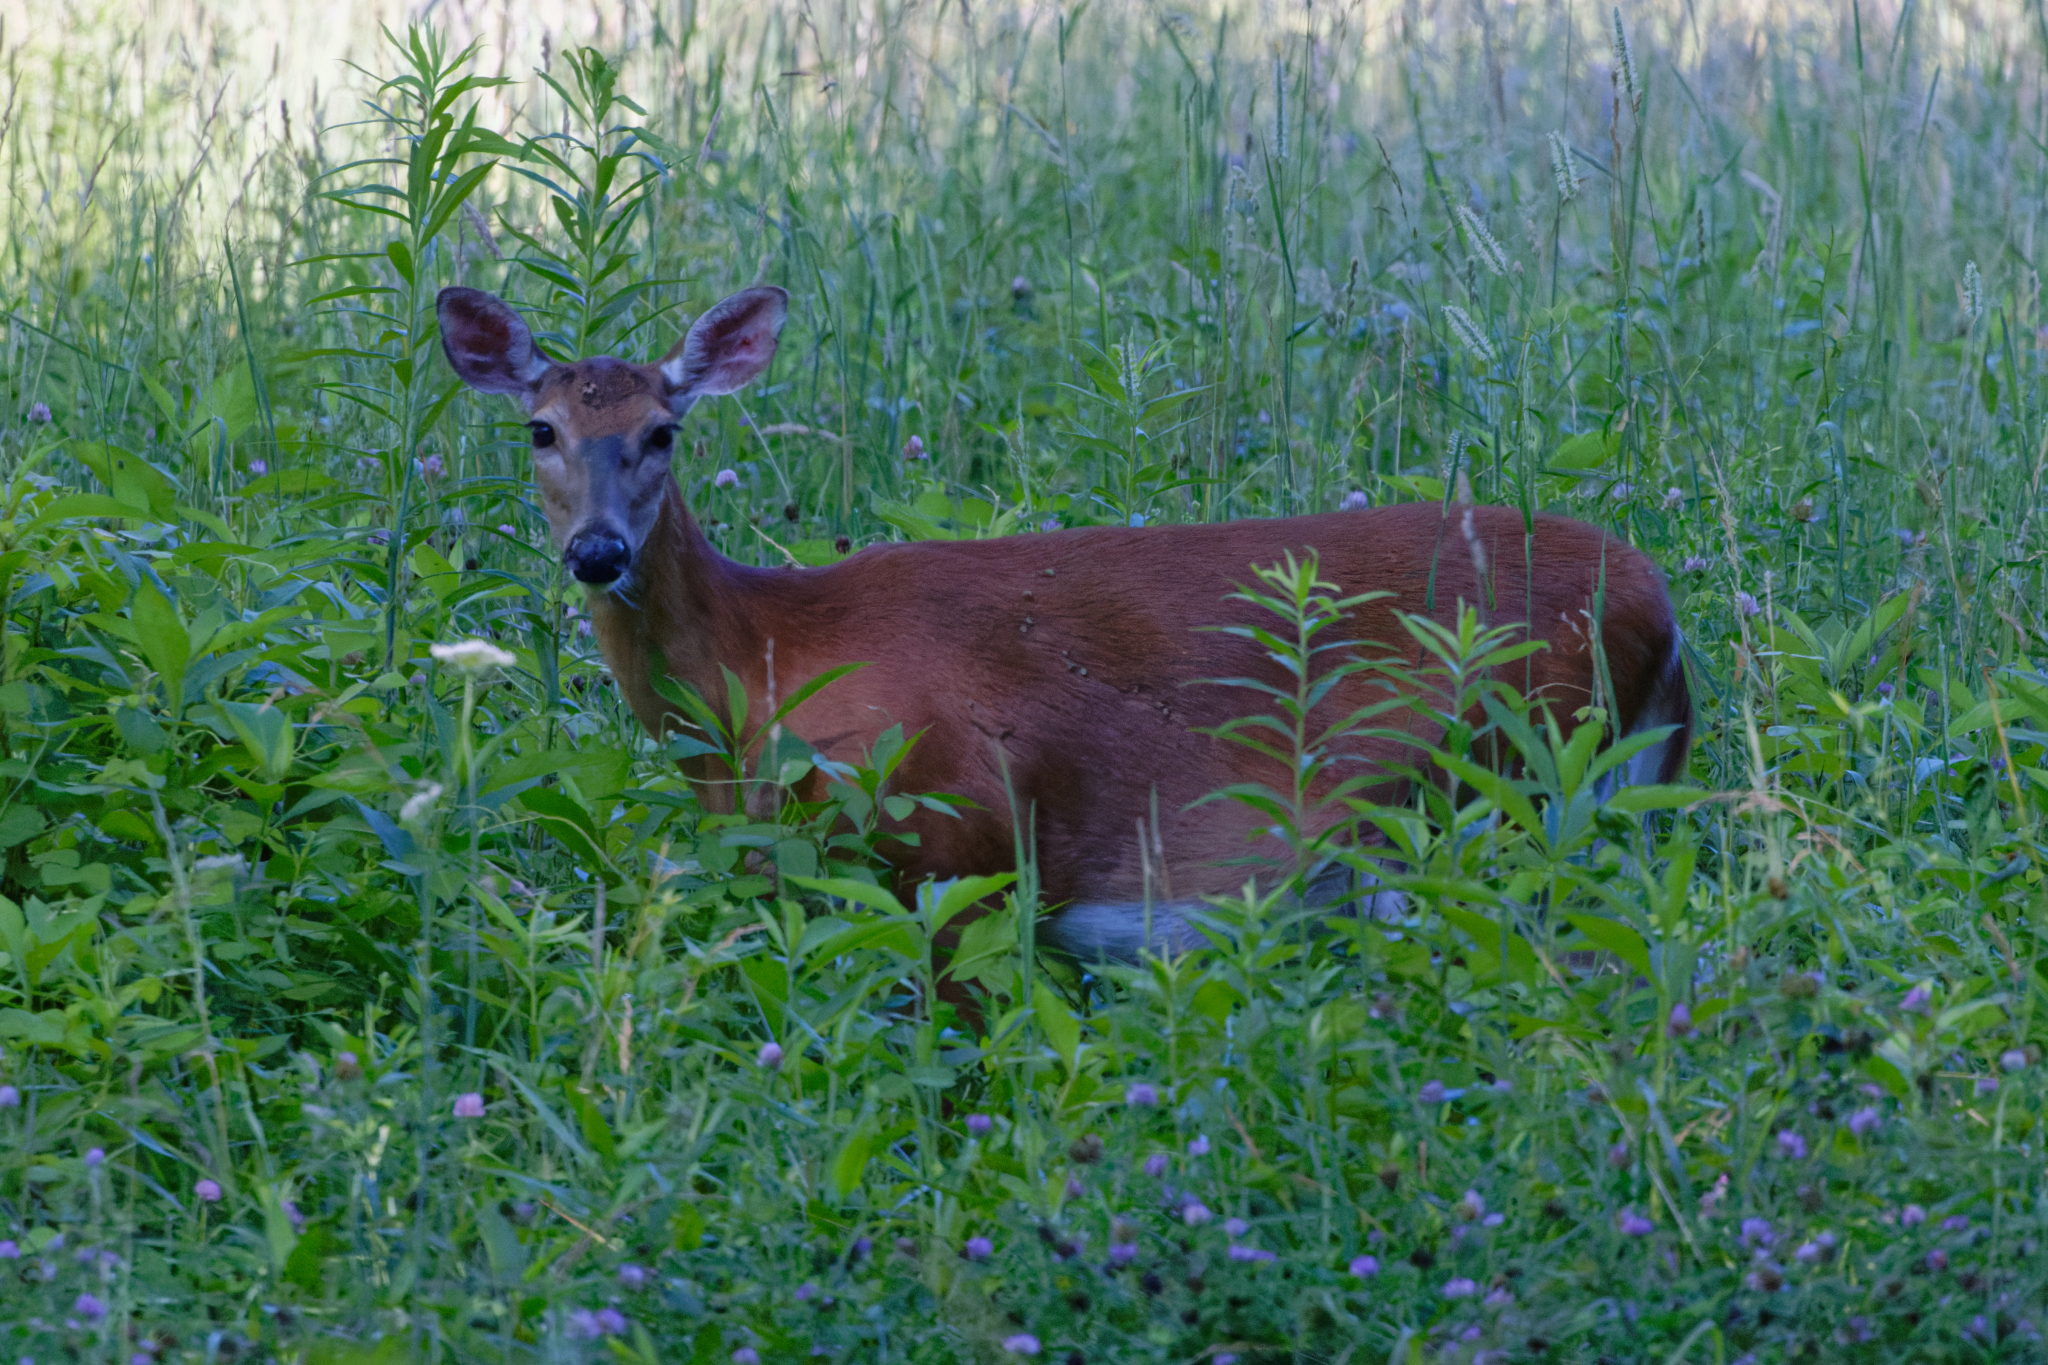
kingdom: Animalia
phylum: Chordata
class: Mammalia
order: Artiodactyla
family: Cervidae
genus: Odocoileus
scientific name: Odocoileus virginianus
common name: White-tailed deer
